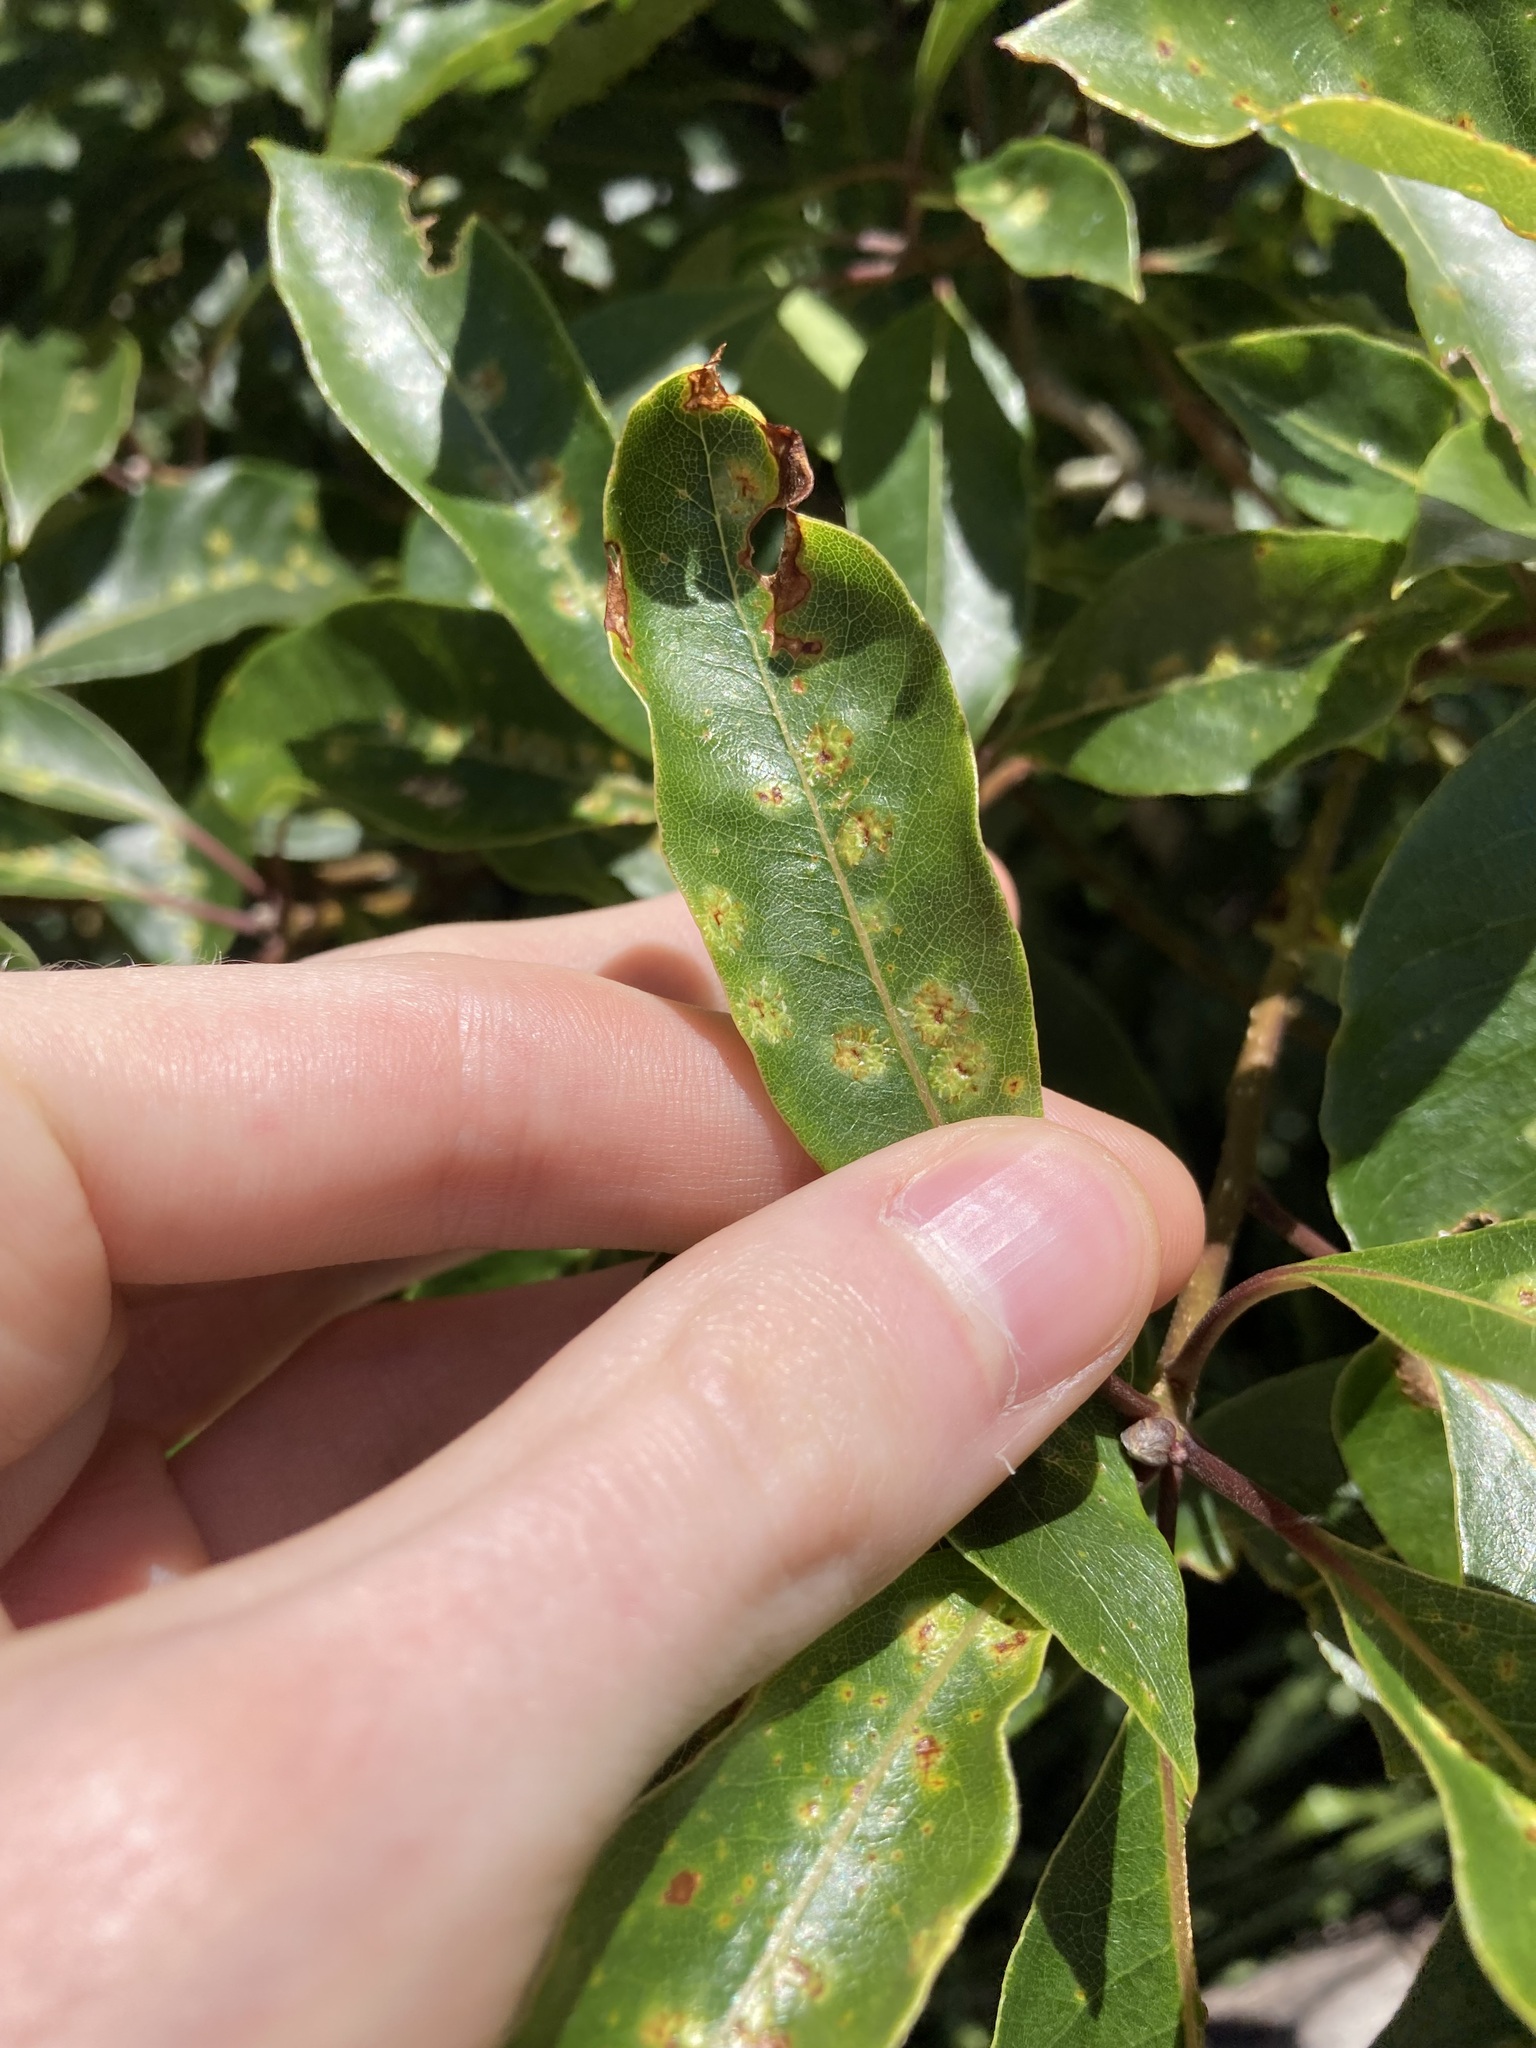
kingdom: Animalia
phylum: Arthropoda
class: Insecta
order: Diptera
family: Agromyzidae
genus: Phytoliriomyza
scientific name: Phytoliriomyza pittosporophylli
